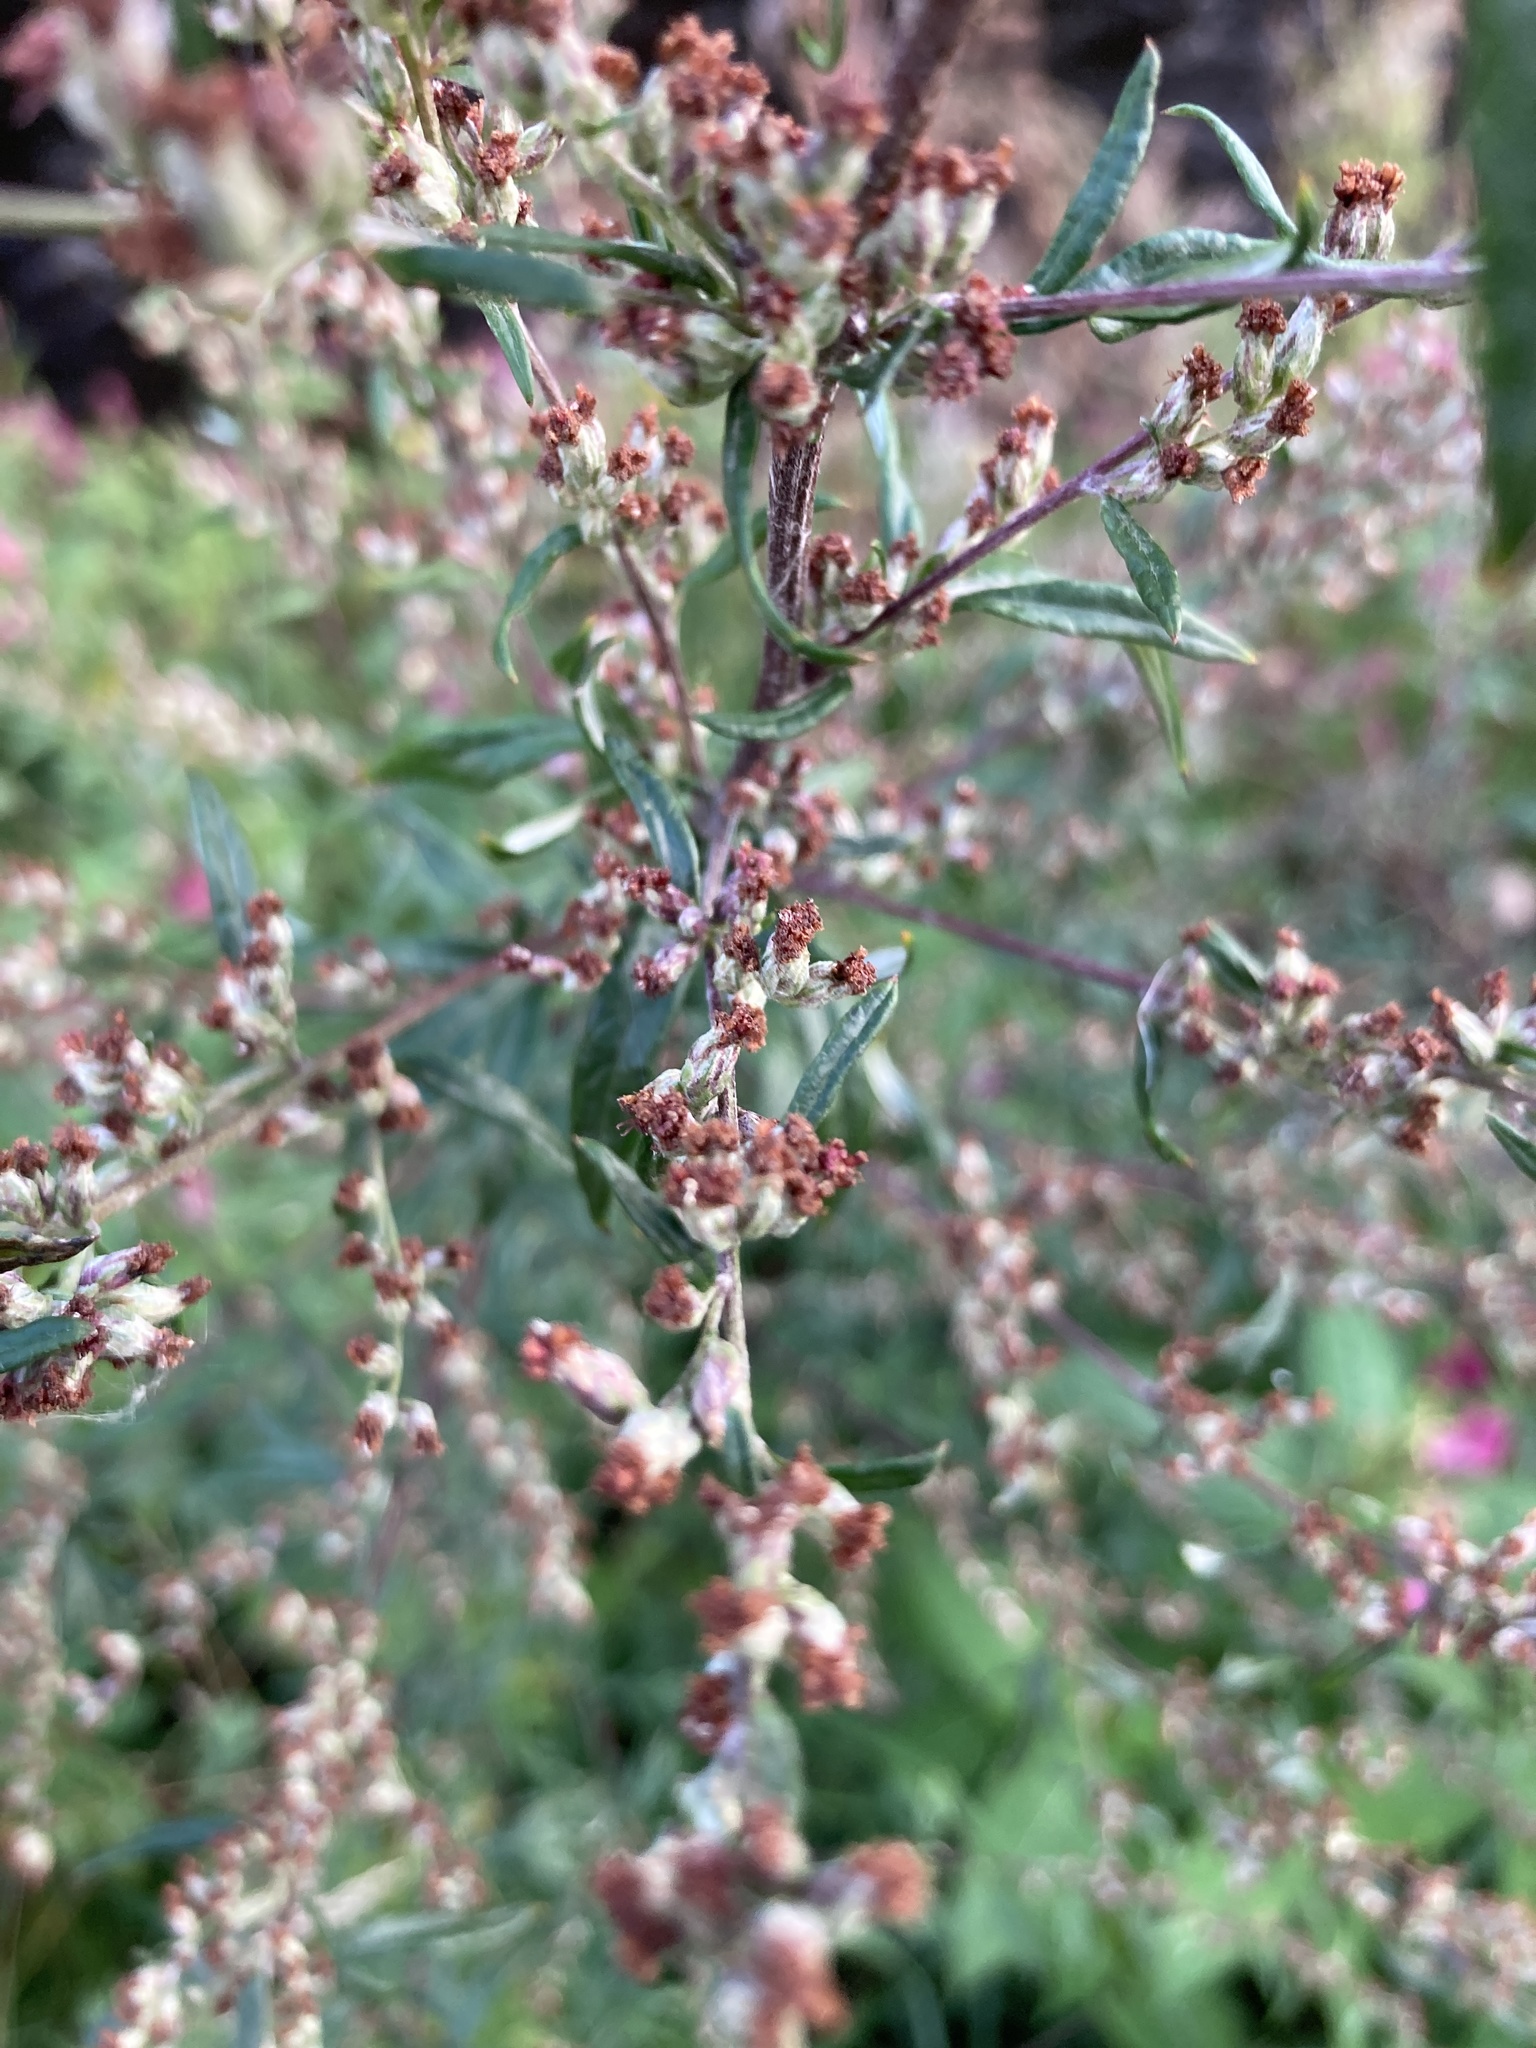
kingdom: Plantae
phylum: Tracheophyta
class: Magnoliopsida
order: Asterales
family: Asteraceae
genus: Artemisia
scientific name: Artemisia vulgaris
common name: Mugwort
